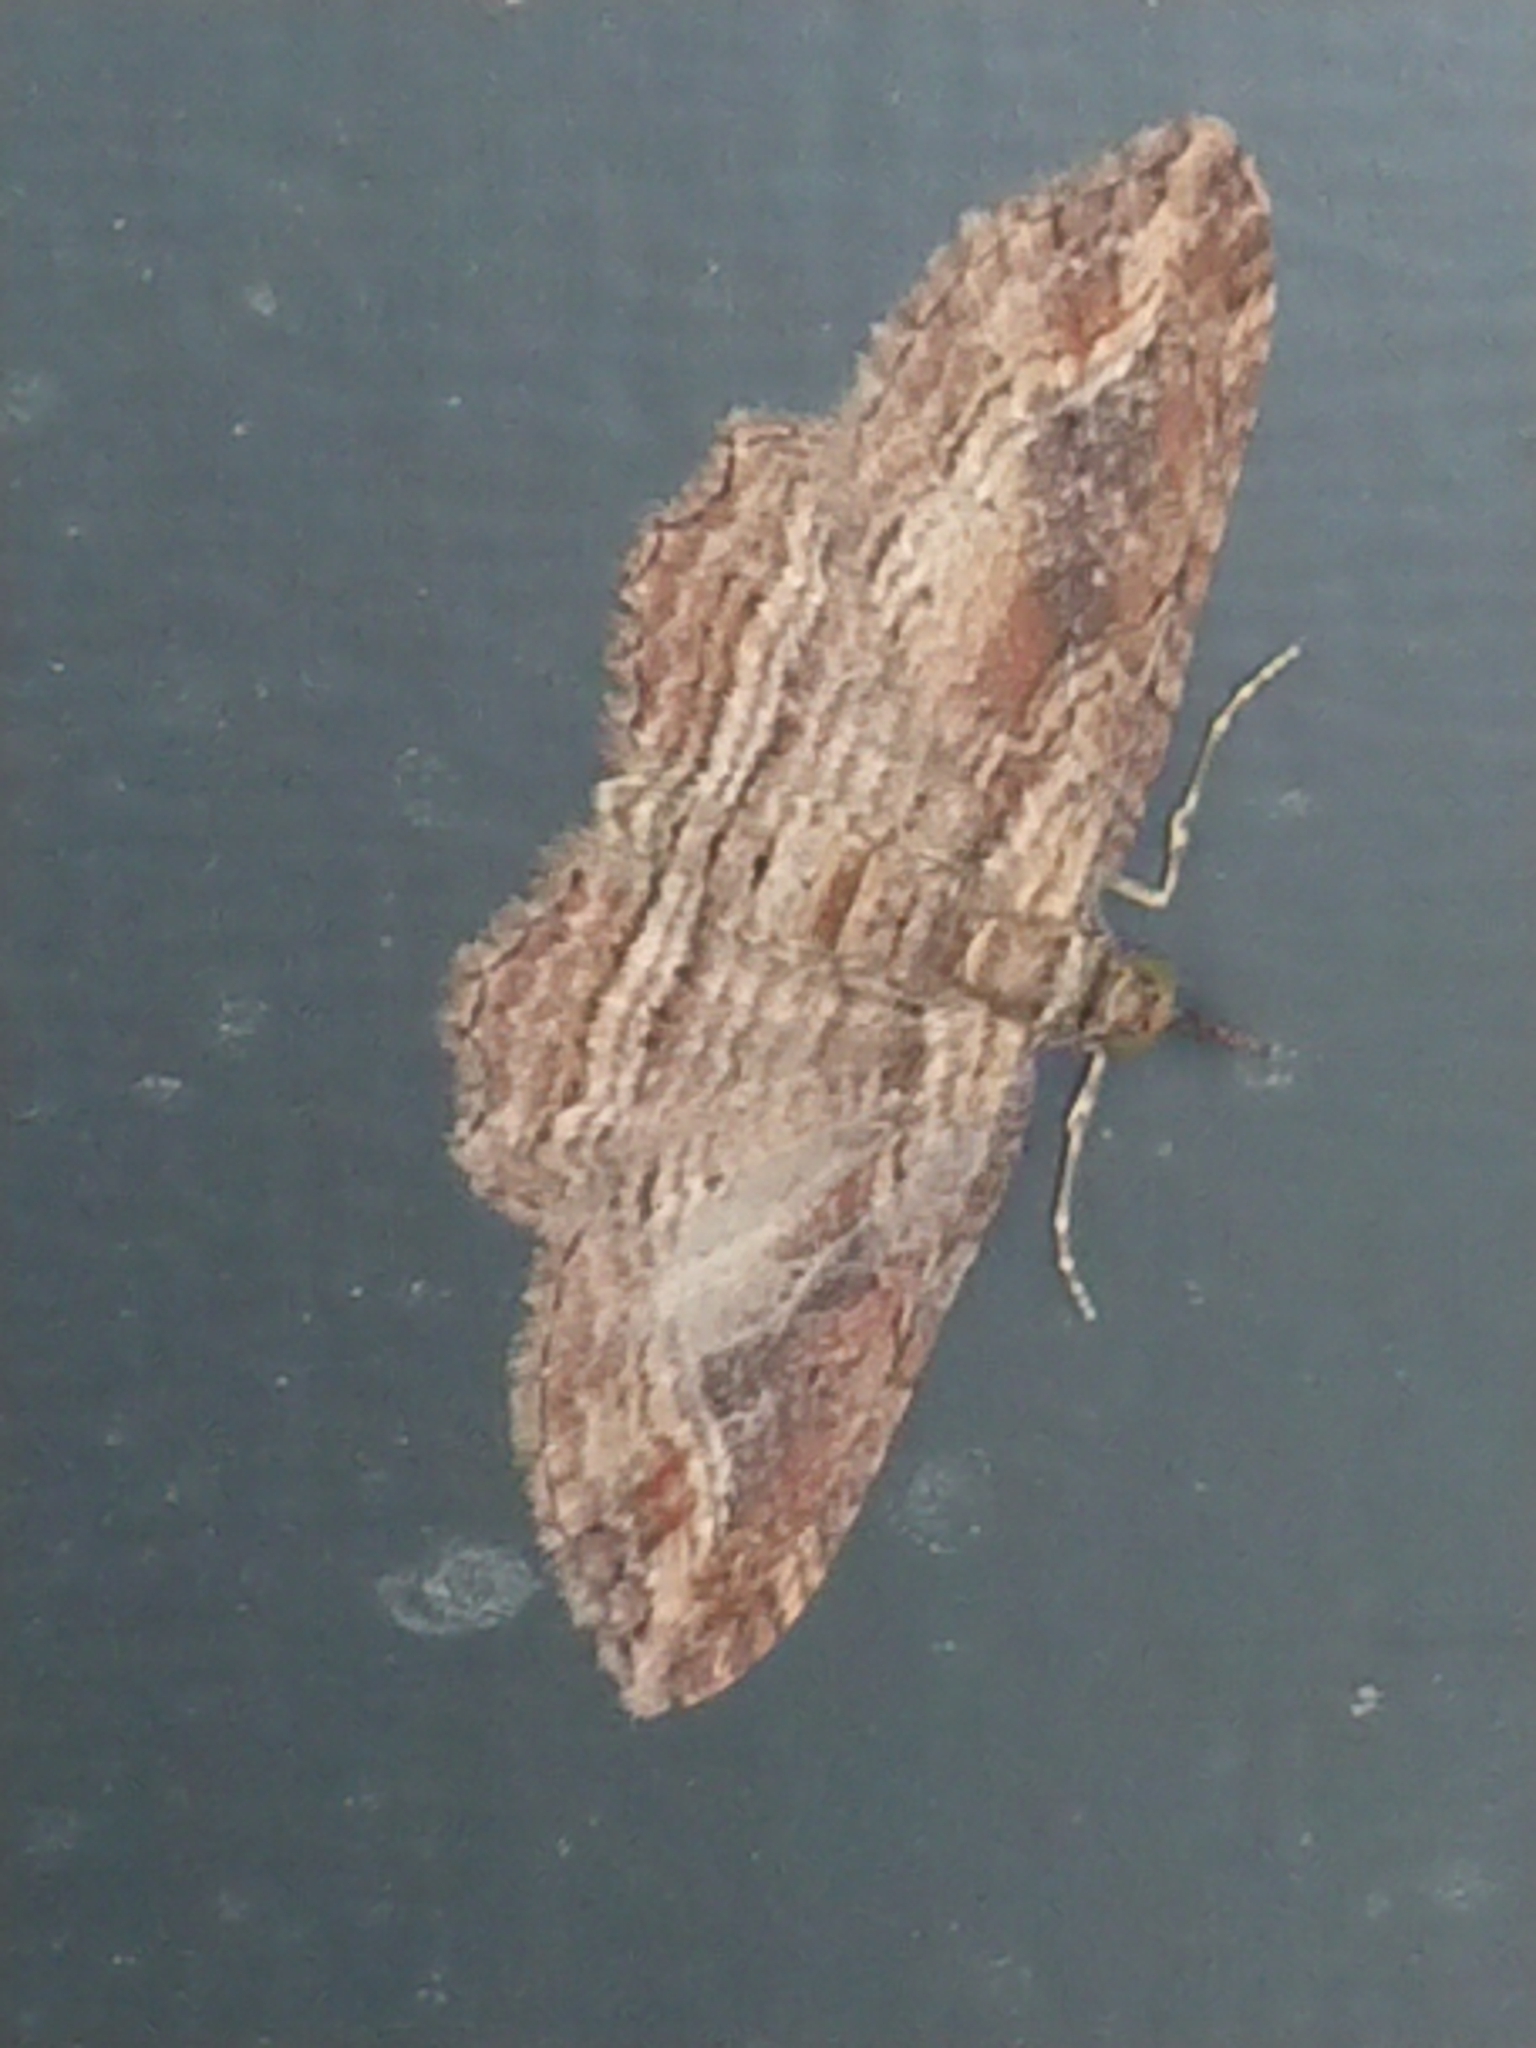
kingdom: Animalia
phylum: Arthropoda
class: Insecta
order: Lepidoptera
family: Geometridae
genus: Chloroclystis
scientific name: Chloroclystis filata
